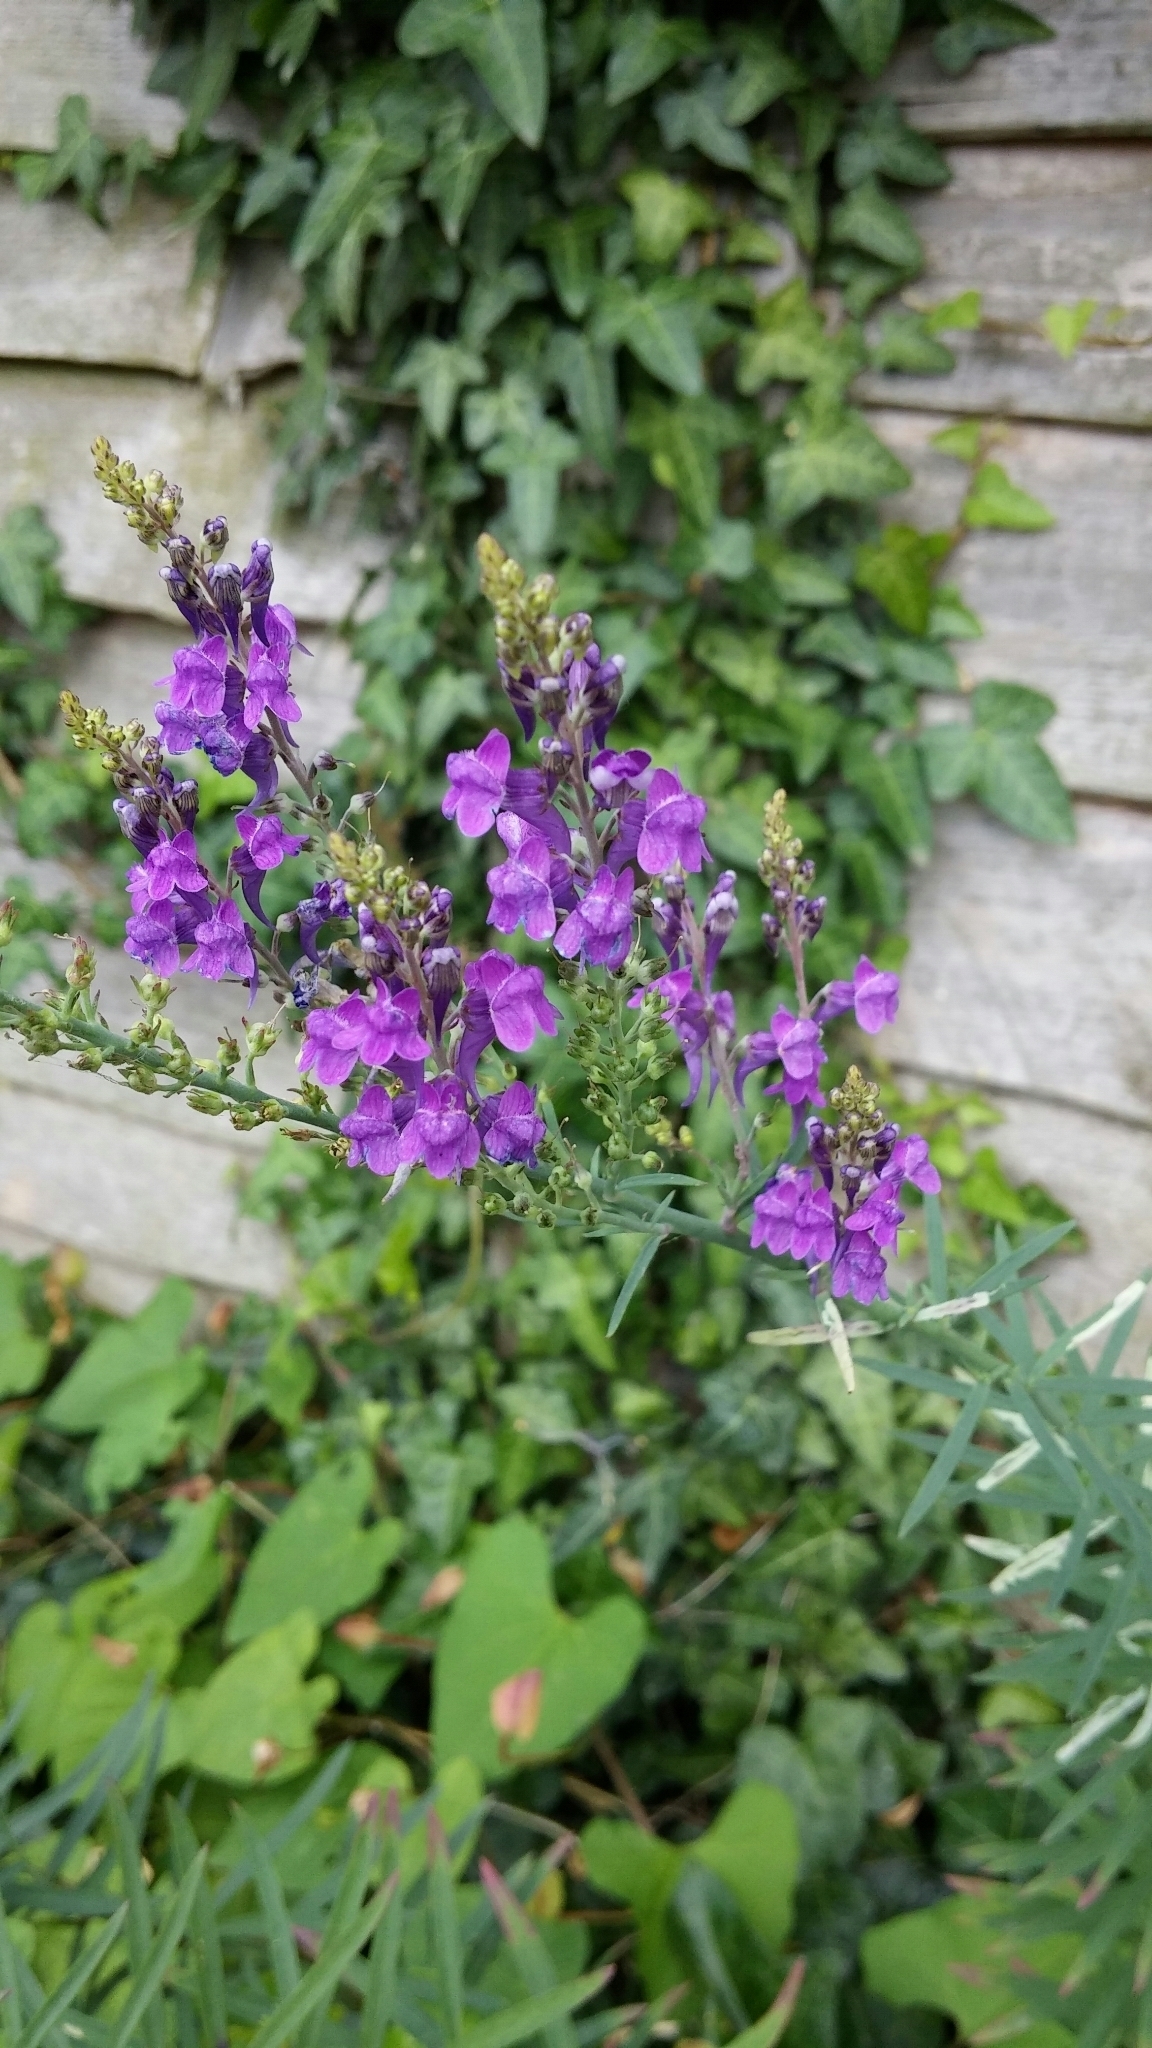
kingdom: Plantae
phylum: Tracheophyta
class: Magnoliopsida
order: Lamiales
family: Plantaginaceae
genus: Linaria
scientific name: Linaria purpurea
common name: Purple toadflax
